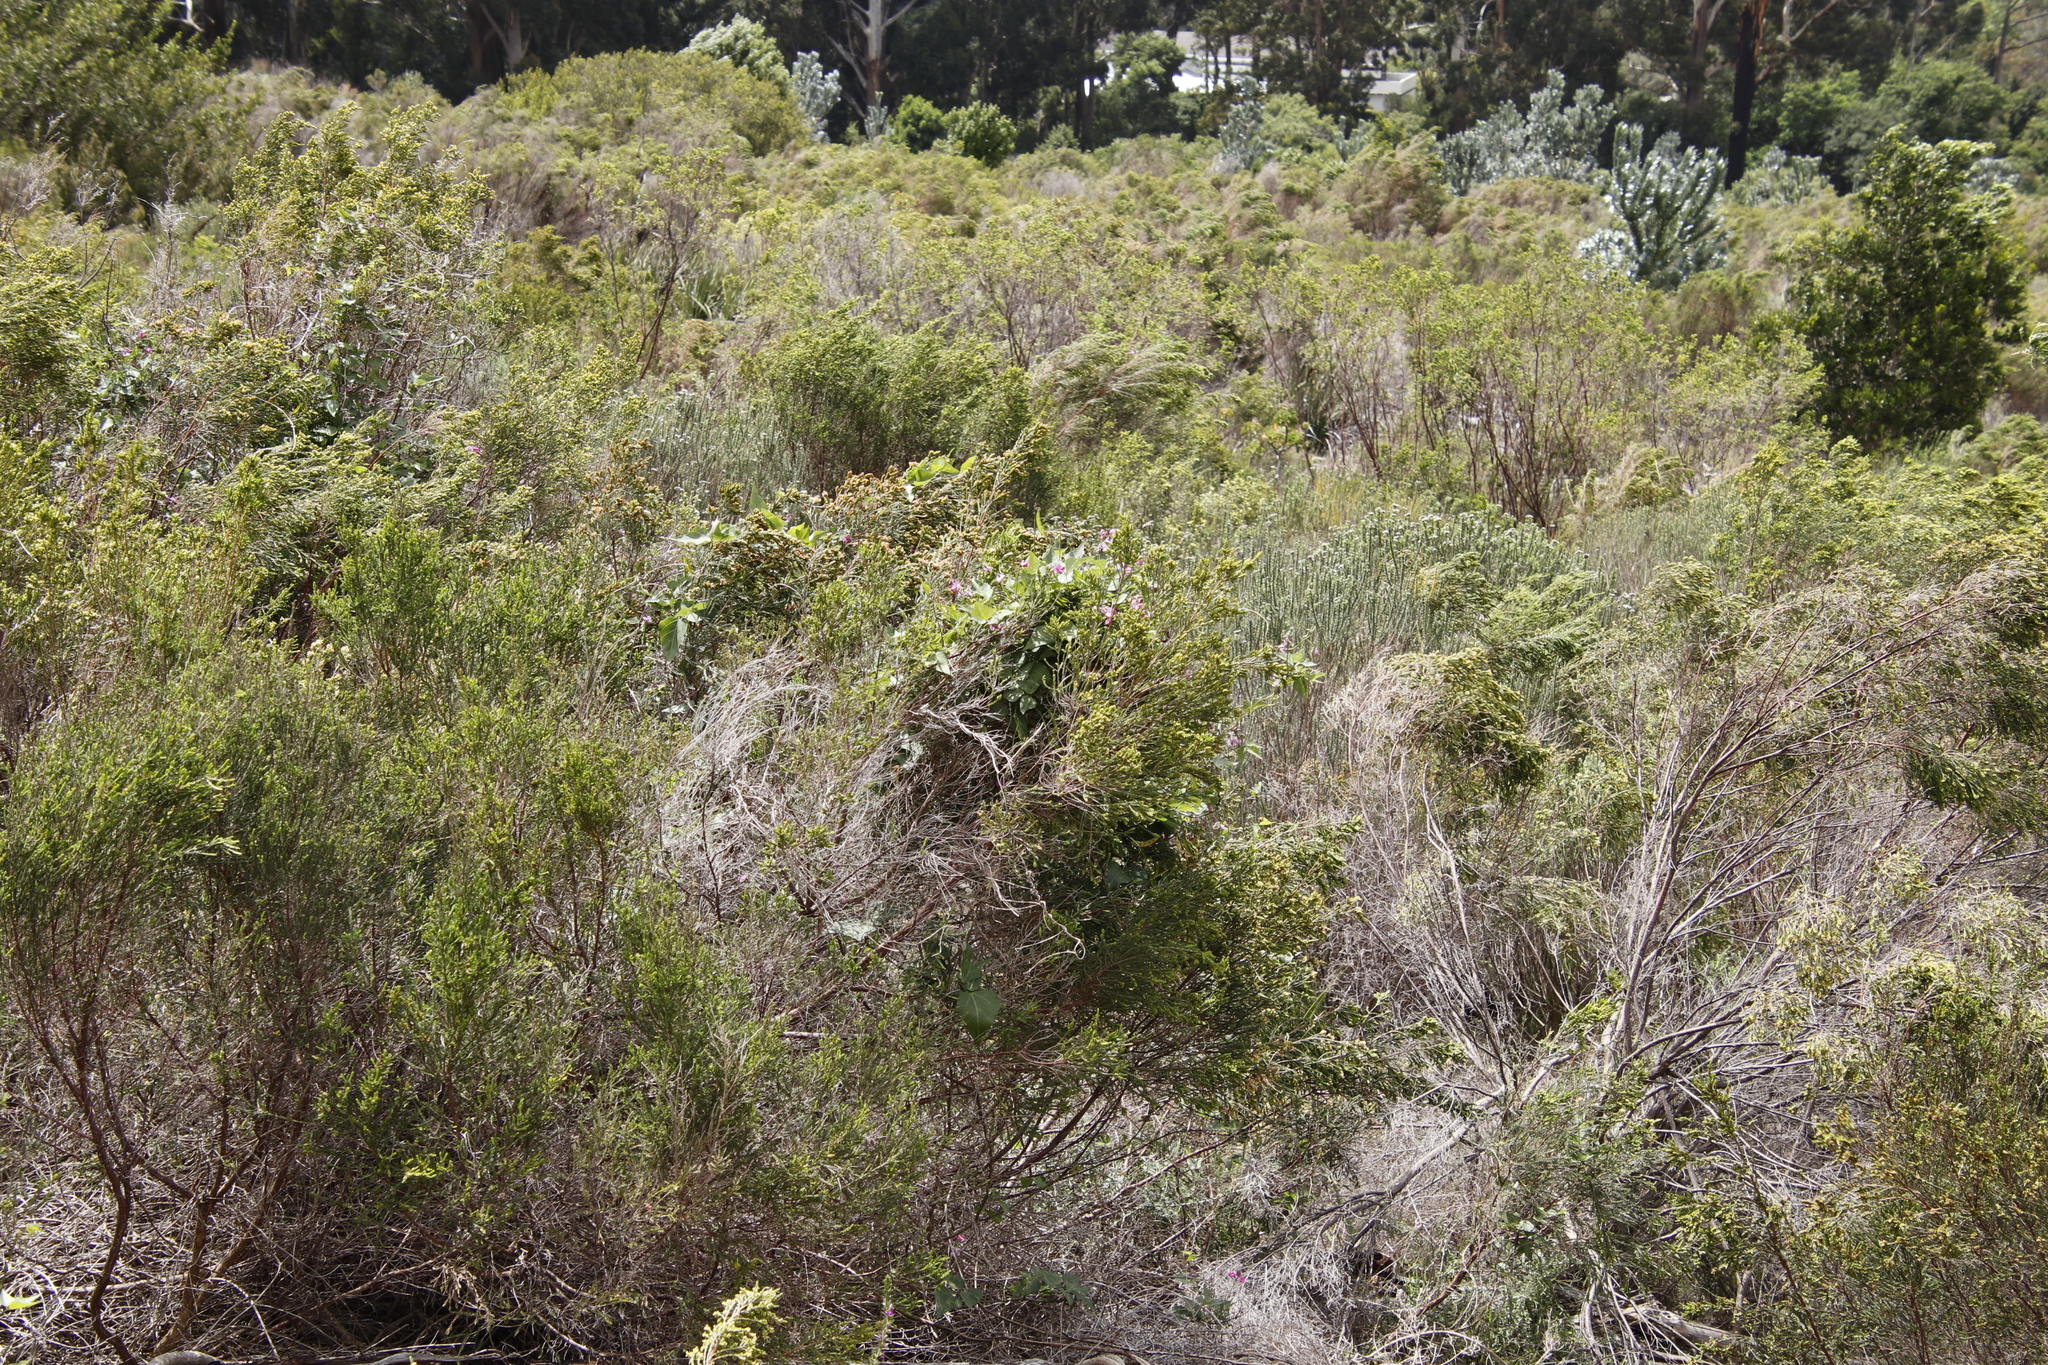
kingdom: Plantae
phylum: Tracheophyta
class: Magnoliopsida
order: Fabales
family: Fabaceae
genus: Dipogon
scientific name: Dipogon lignosus
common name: Okie bean
